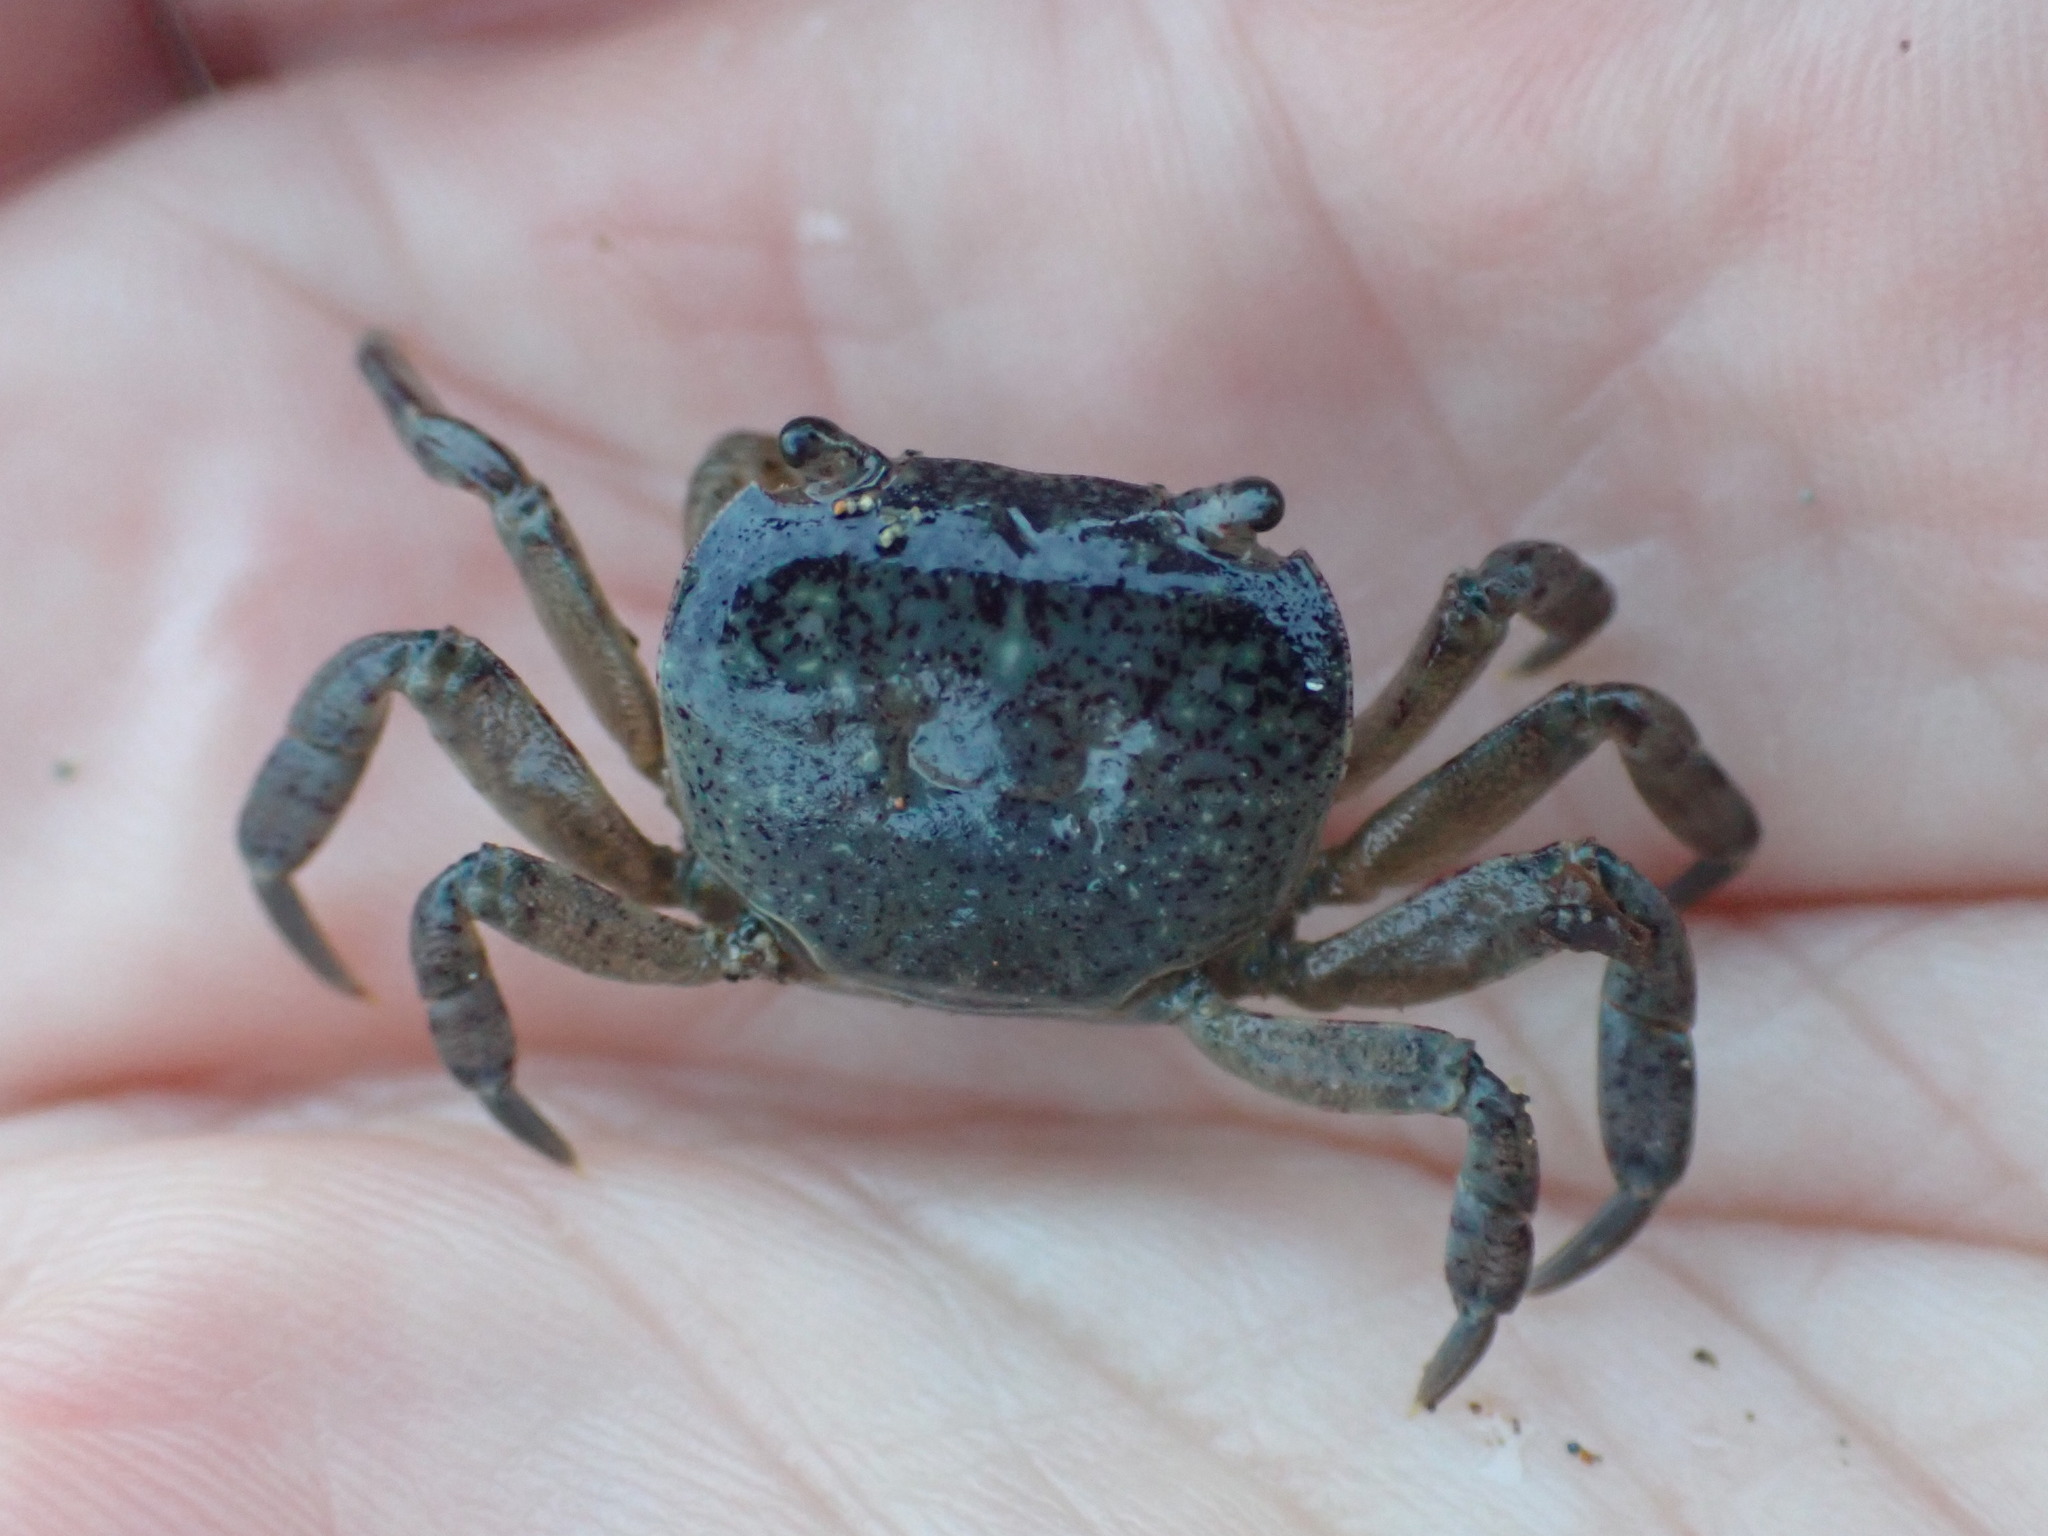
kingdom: Animalia
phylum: Arthropoda
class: Malacostraca
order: Decapoda
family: Varunidae
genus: Cyclograpsus
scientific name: Cyclograpsus lavauxi
